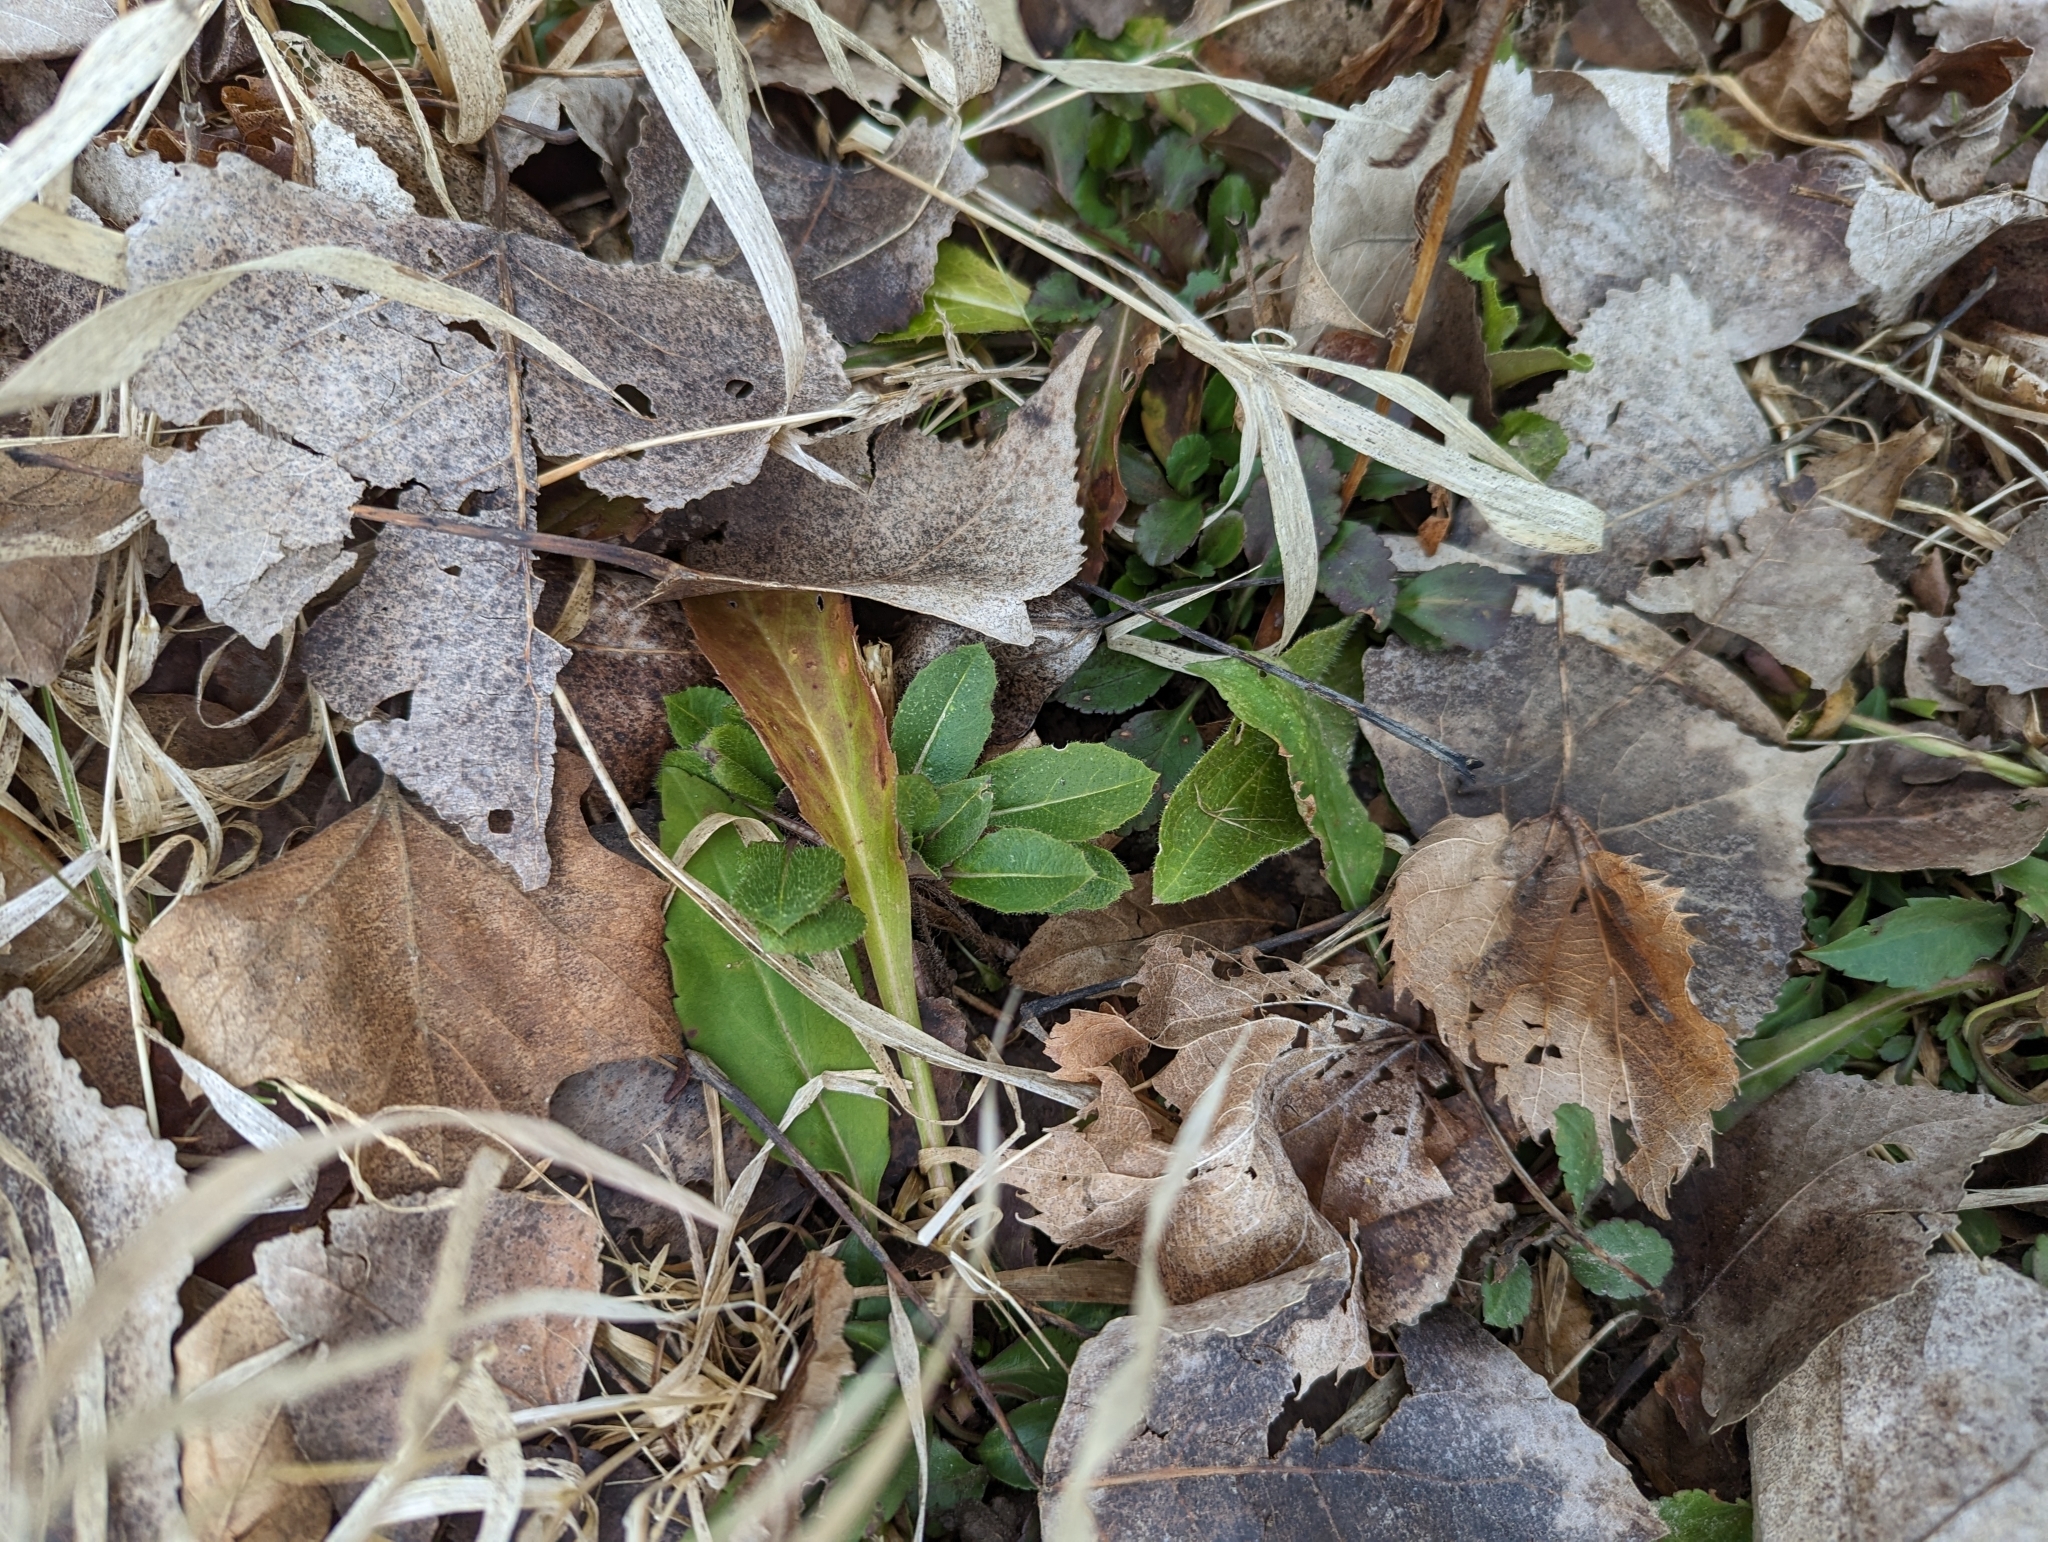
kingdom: Plantae
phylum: Tracheophyta
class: Magnoliopsida
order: Brassicales
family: Brassicaceae
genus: Hesperis
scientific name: Hesperis matronalis
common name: Dame's-violet
